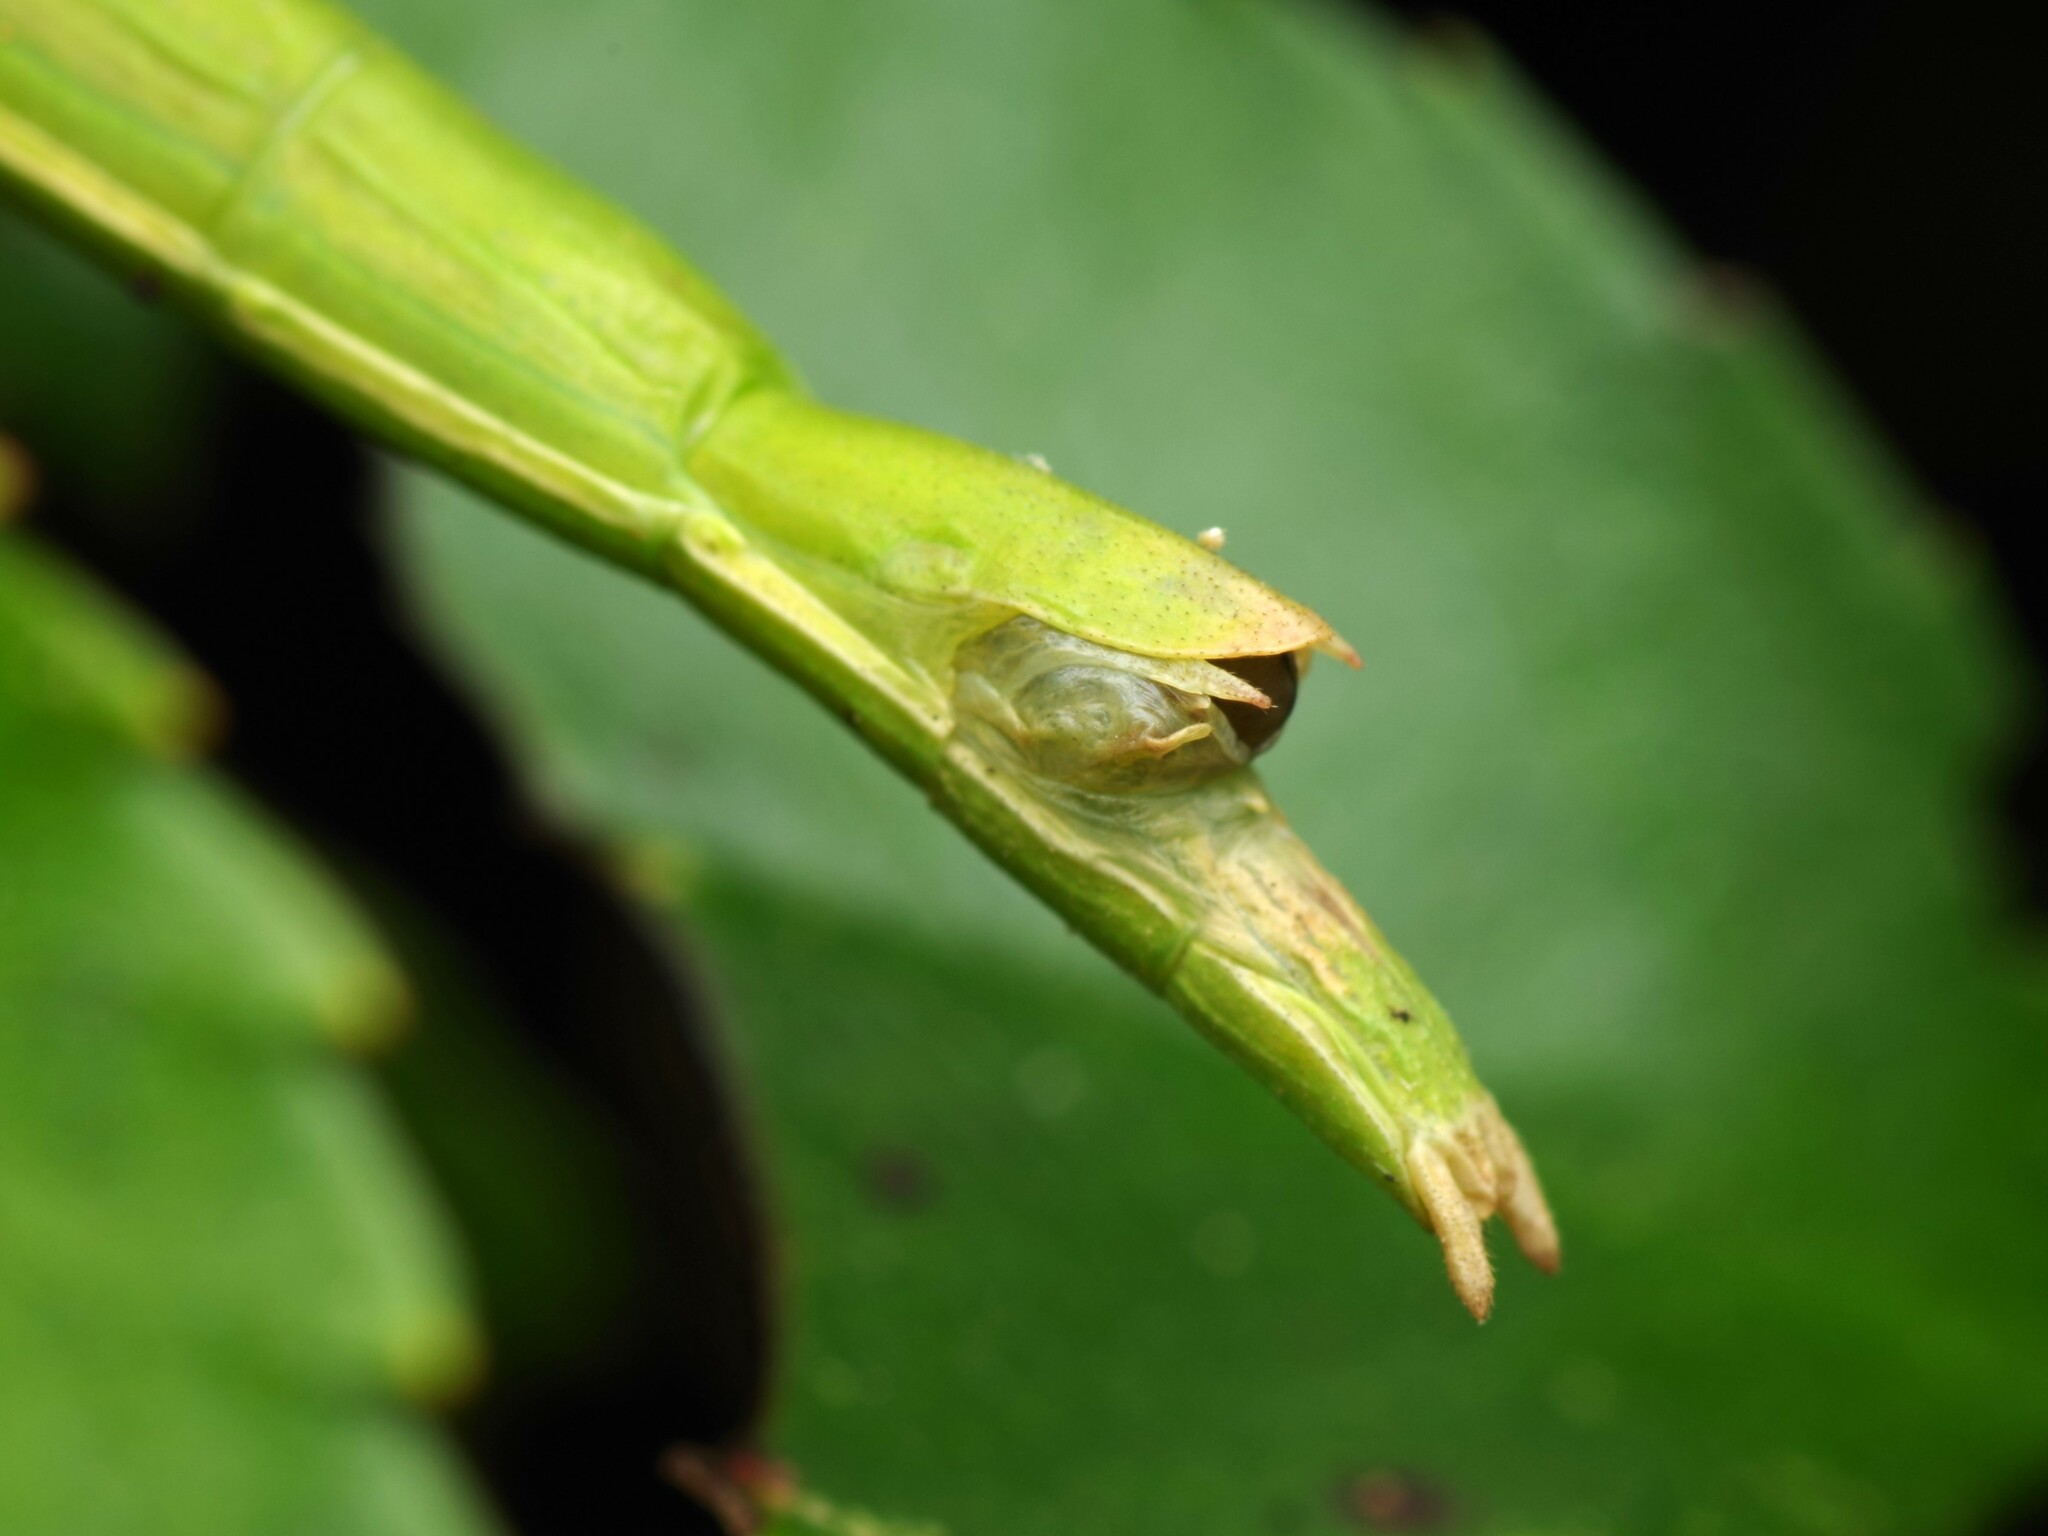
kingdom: Animalia
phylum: Arthropoda
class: Insecta
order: Phasmida
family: Bacillidae
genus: Clonopsis
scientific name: Clonopsis gallica
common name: French stick insect
